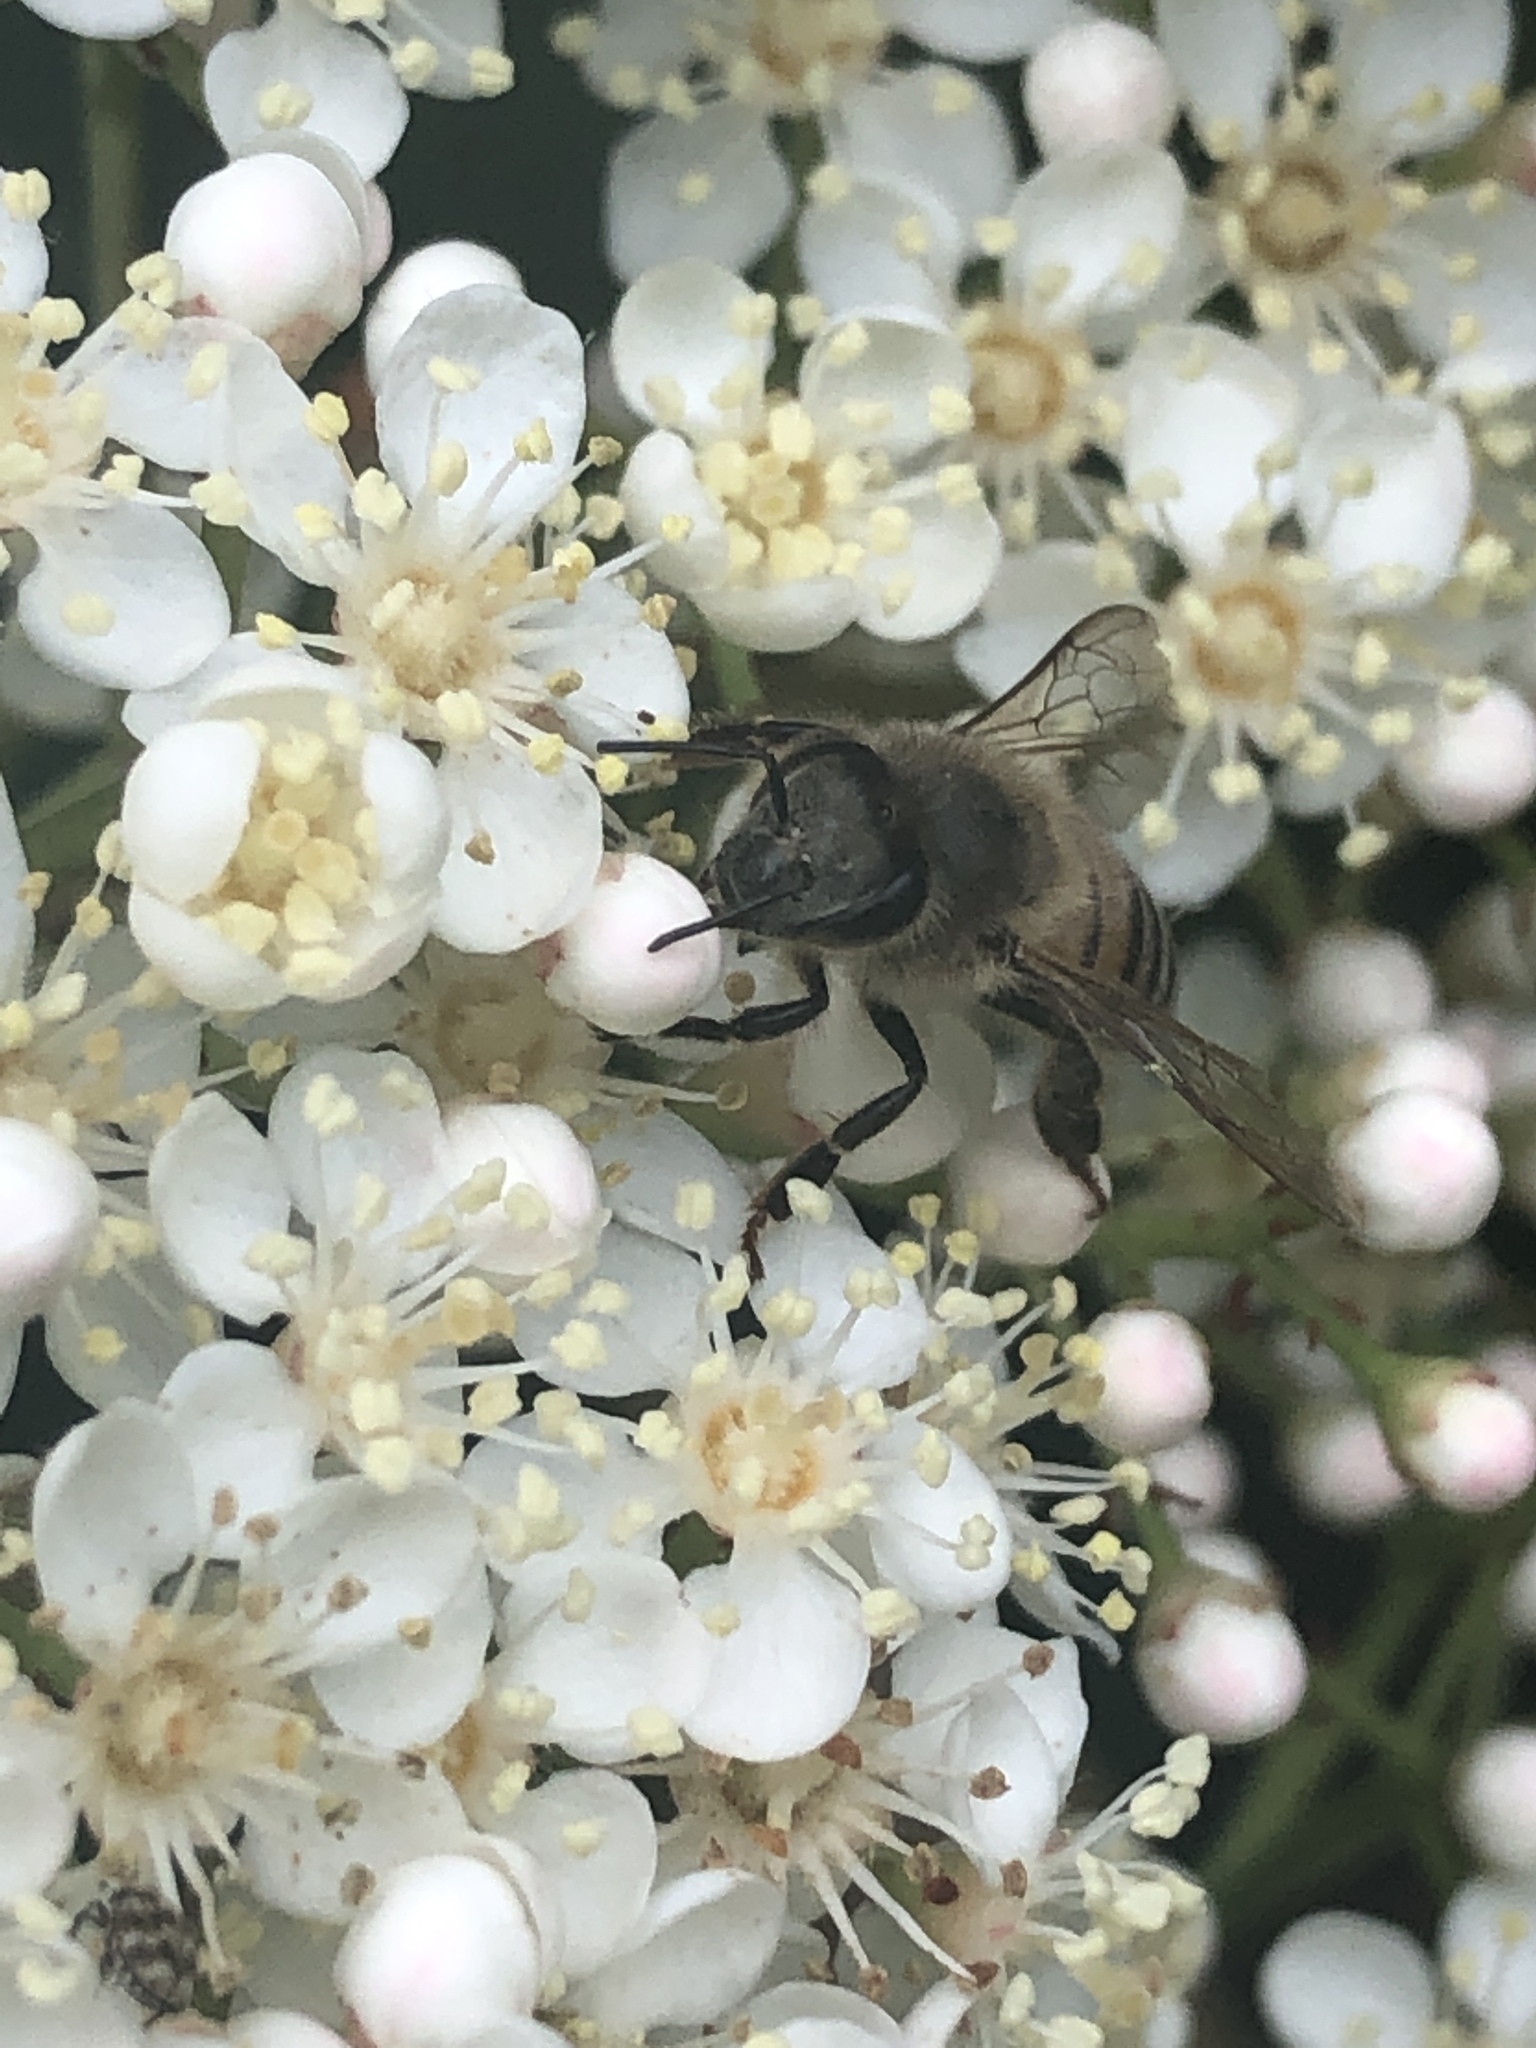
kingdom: Animalia
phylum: Arthropoda
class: Insecta
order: Hymenoptera
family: Apidae
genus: Apis
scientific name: Apis mellifera
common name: Honey bee
